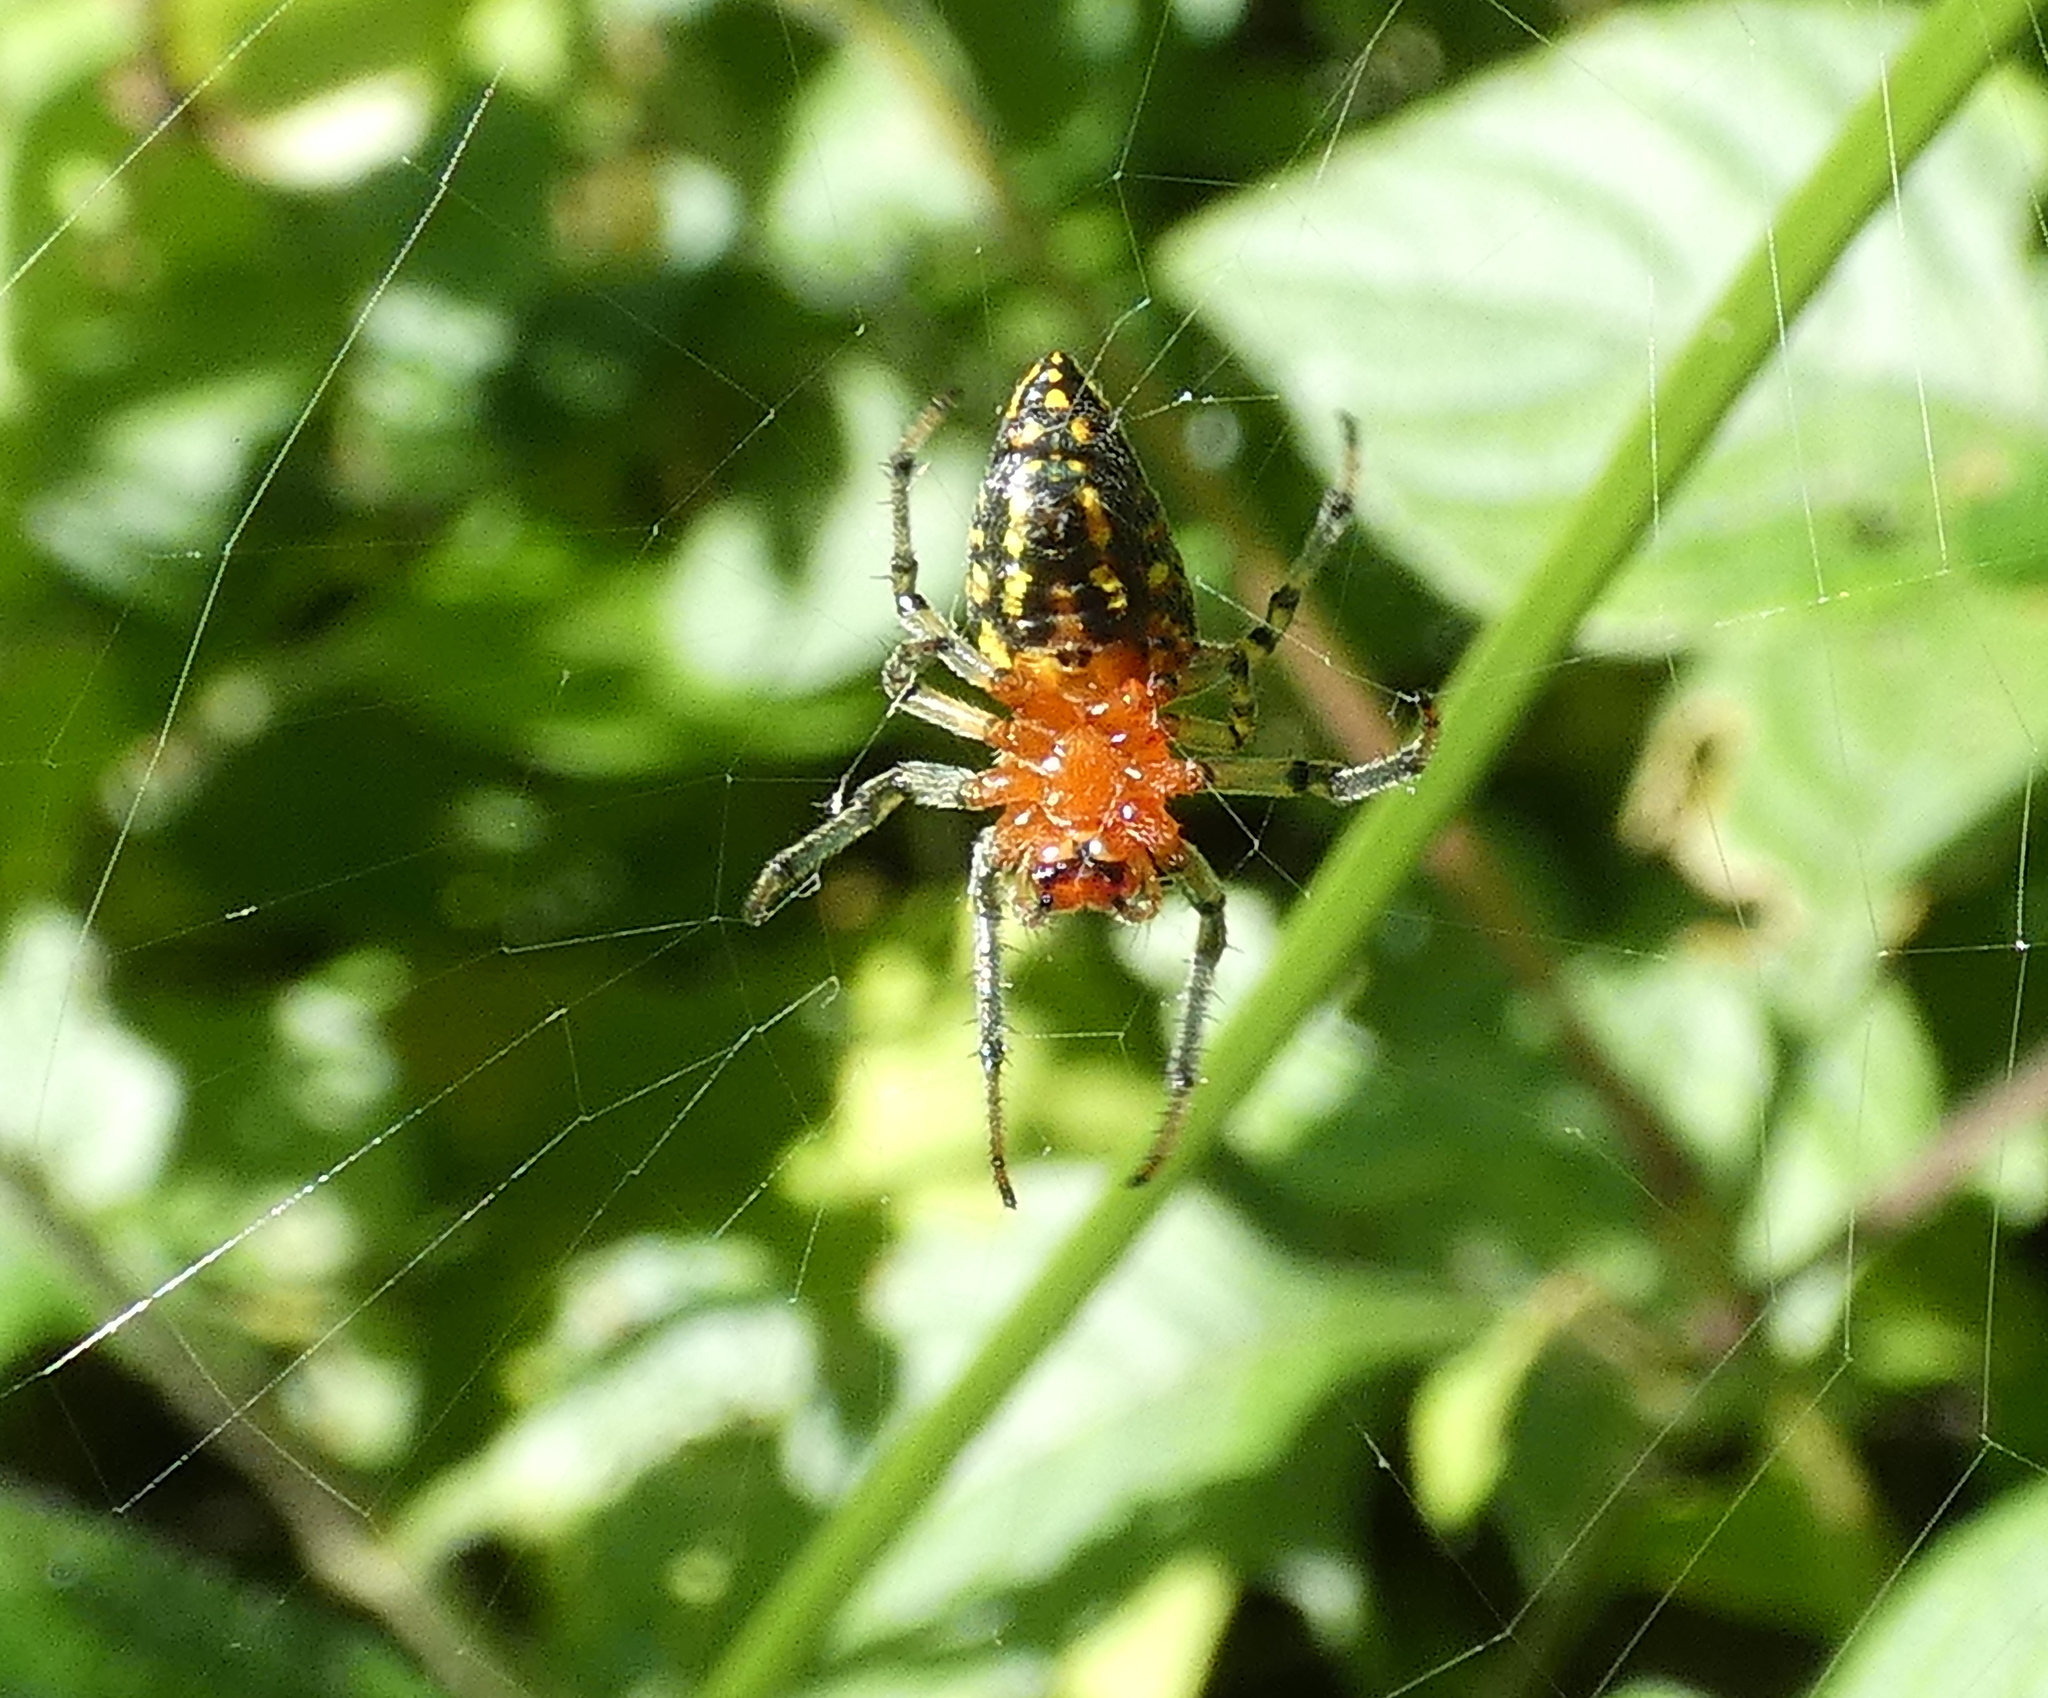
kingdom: Animalia
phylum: Arthropoda
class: Arachnida
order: Araneae
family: Araneidae
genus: Alpaida
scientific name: Alpaida bicornuta
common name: Orb weavers
